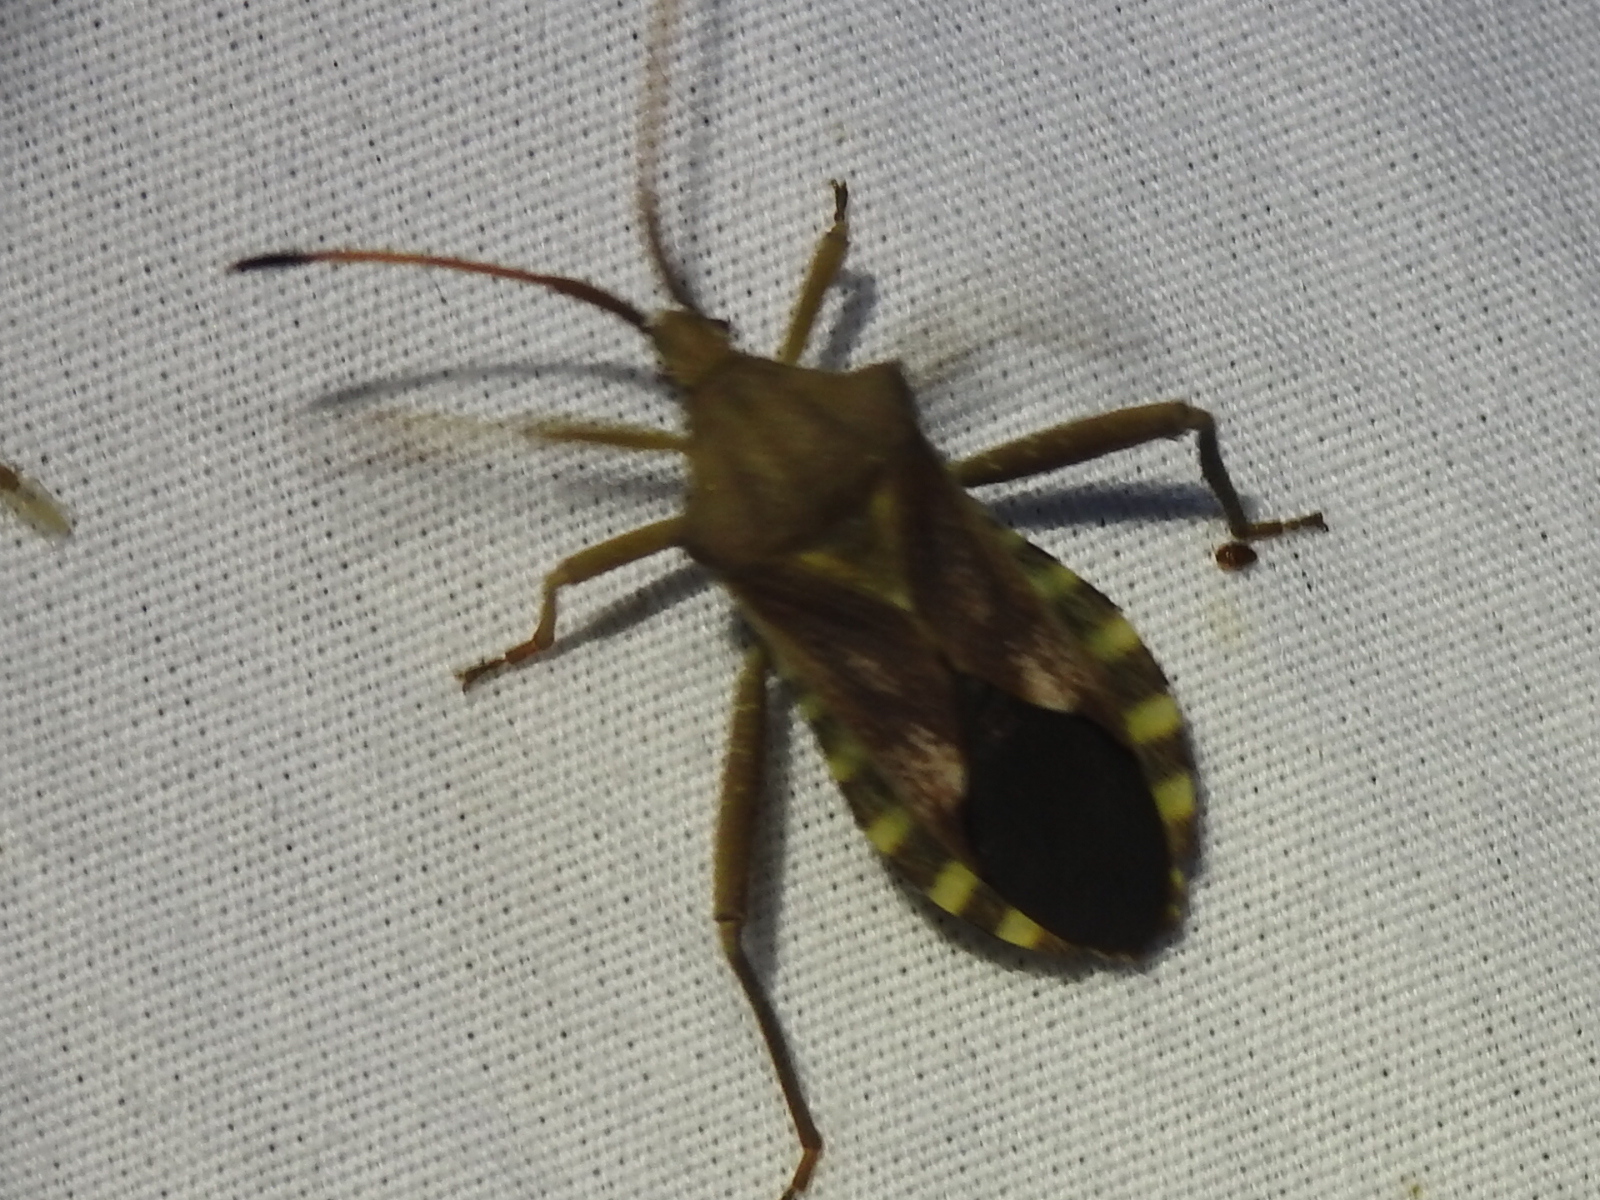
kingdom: Animalia
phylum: Arthropoda
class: Insecta
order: Hemiptera
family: Coreidae
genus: Mozena
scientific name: Mozena obtusa
